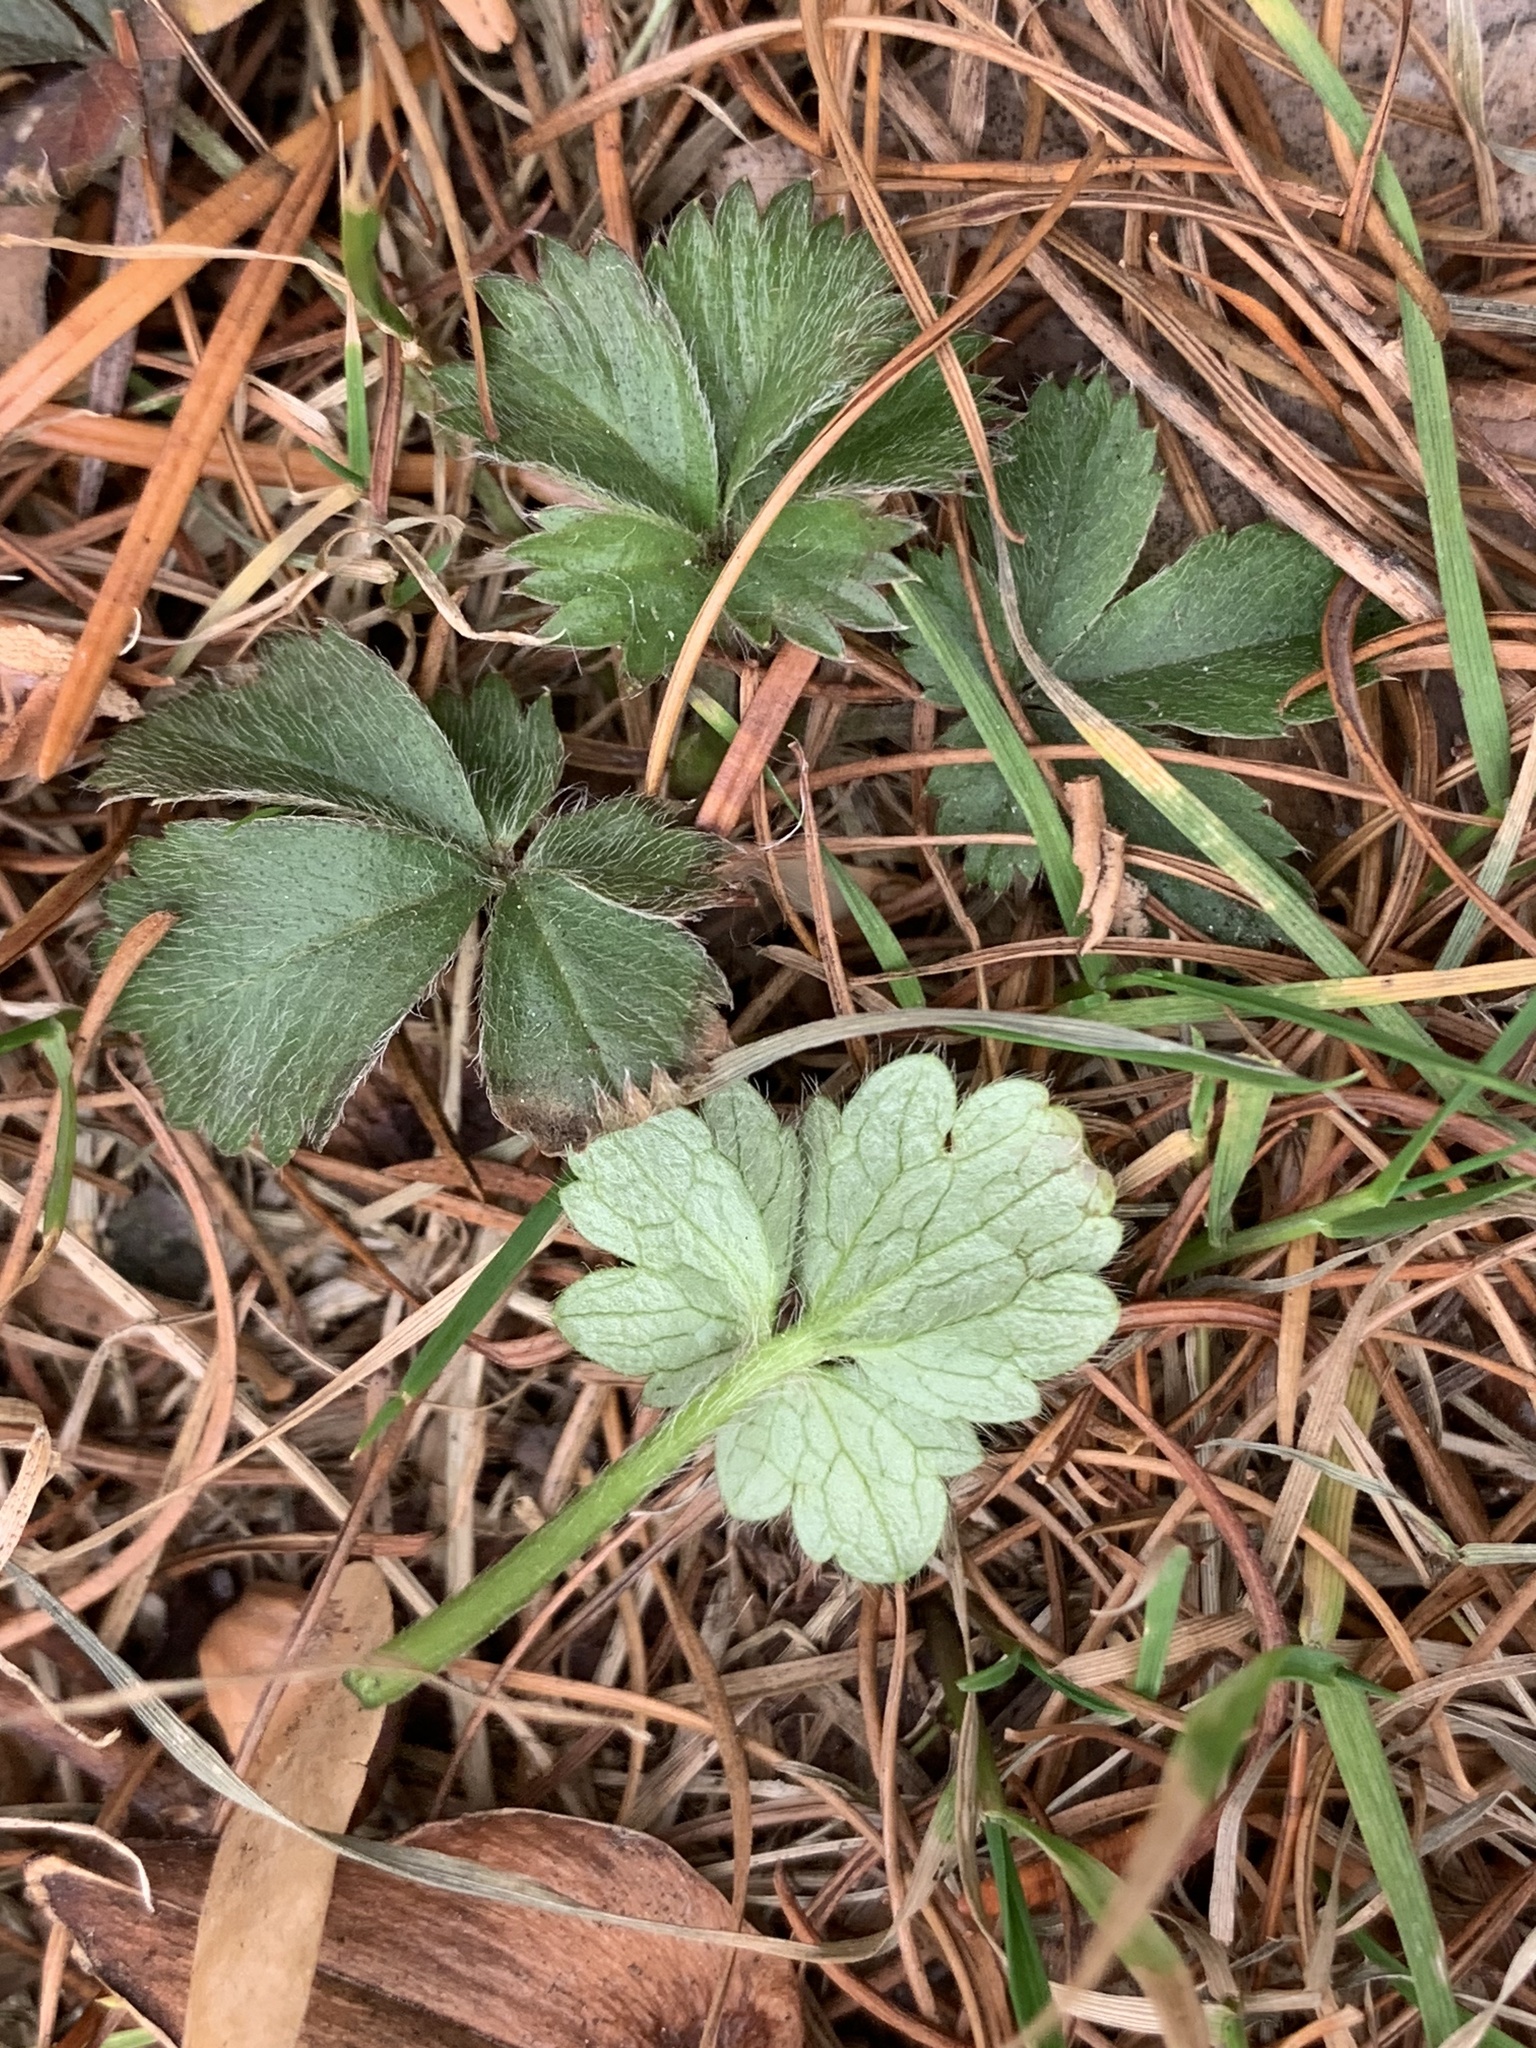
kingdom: Plantae
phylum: Tracheophyta
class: Magnoliopsida
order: Rosales
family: Rosaceae
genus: Potentilla
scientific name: Potentilla canadensis
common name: Canada cinquefoil
